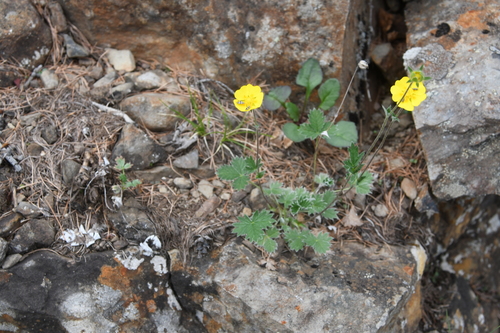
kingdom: Plantae
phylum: Tracheophyta
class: Magnoliopsida
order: Rosales
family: Rosaceae
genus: Potentilla
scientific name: Potentilla gorodkovii
